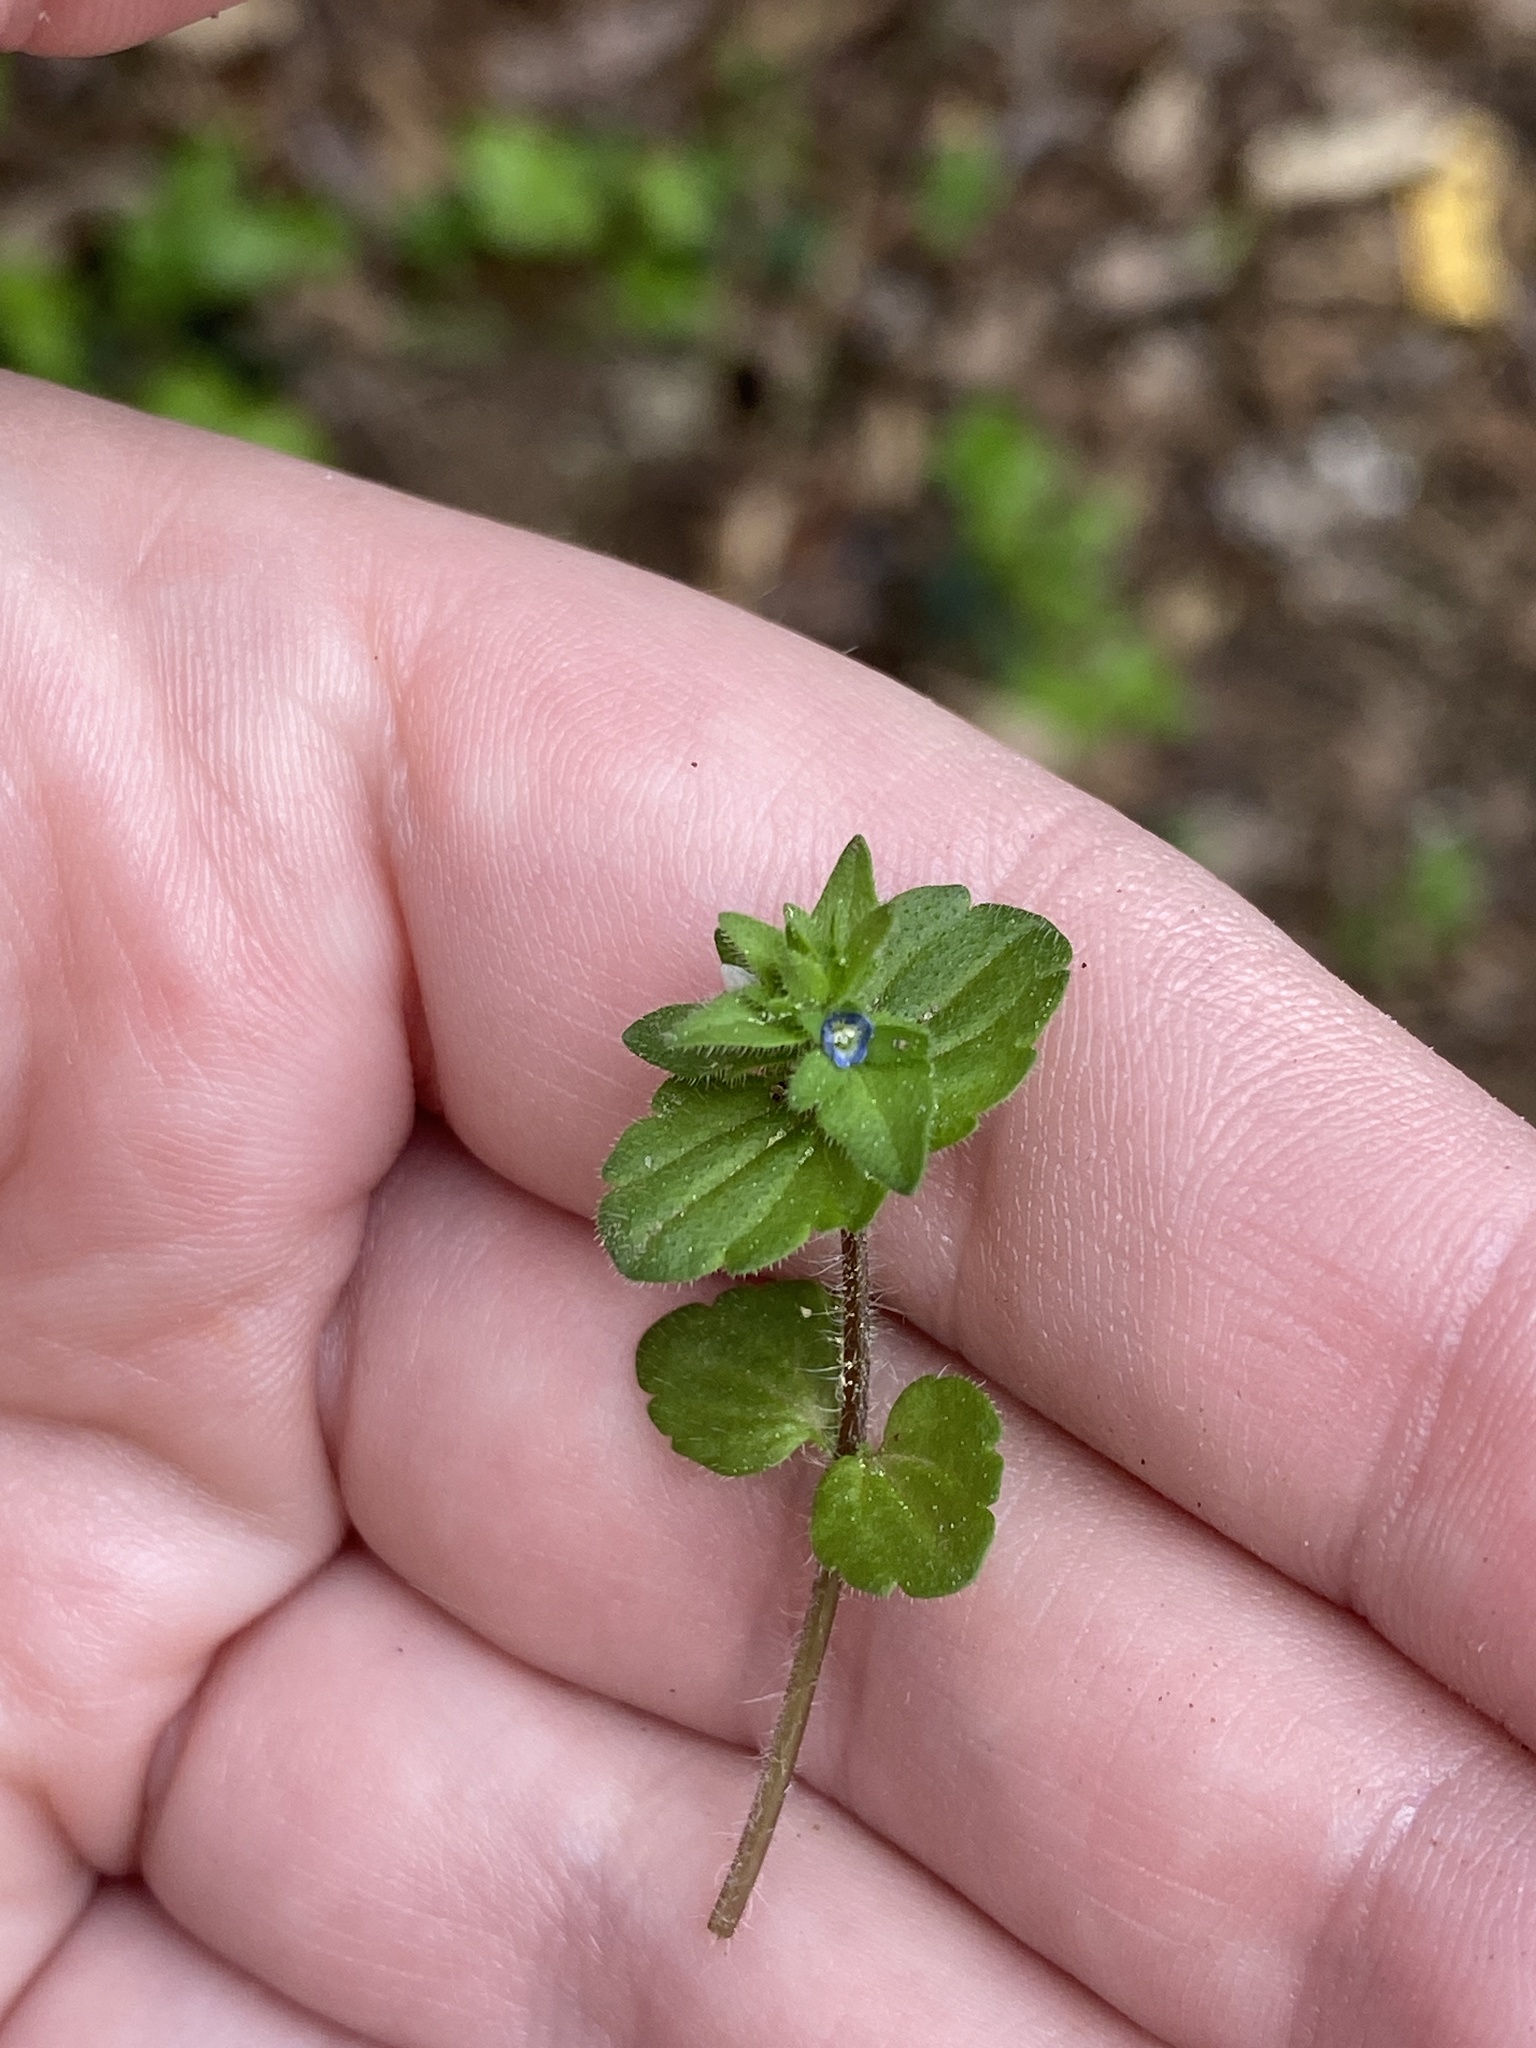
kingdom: Plantae
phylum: Tracheophyta
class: Magnoliopsida
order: Lamiales
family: Plantaginaceae
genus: Veronica
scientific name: Veronica arvensis
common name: Corn speedwell
